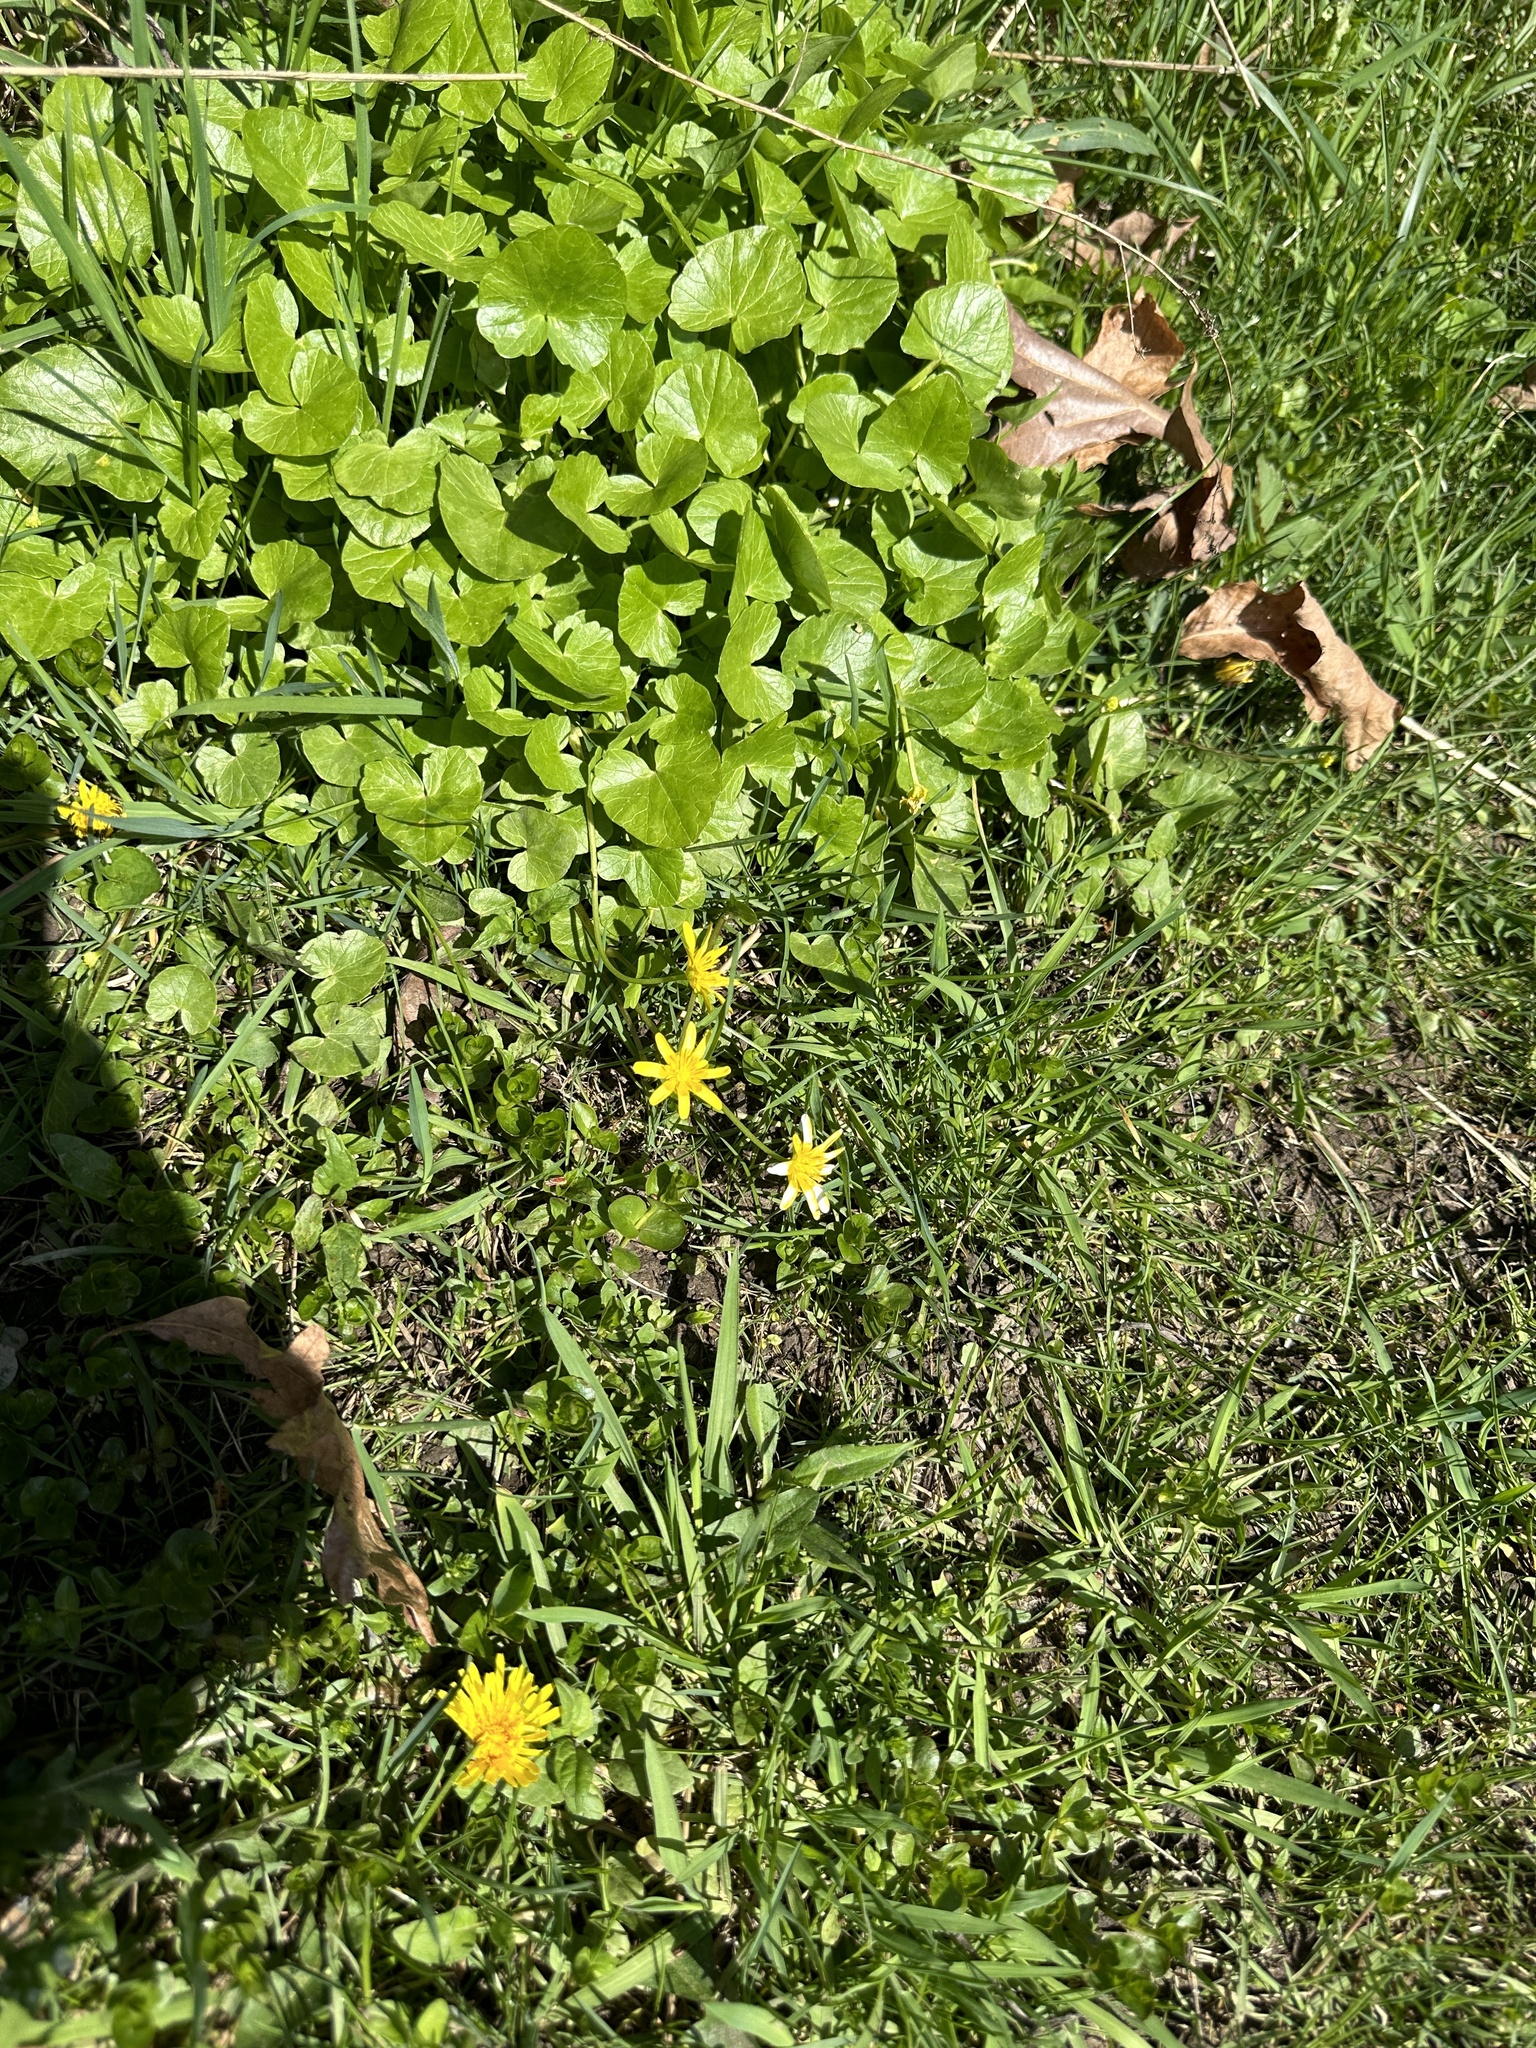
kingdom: Plantae
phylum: Tracheophyta
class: Magnoliopsida
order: Ranunculales
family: Ranunculaceae
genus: Ficaria
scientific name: Ficaria verna
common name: Lesser celandine
